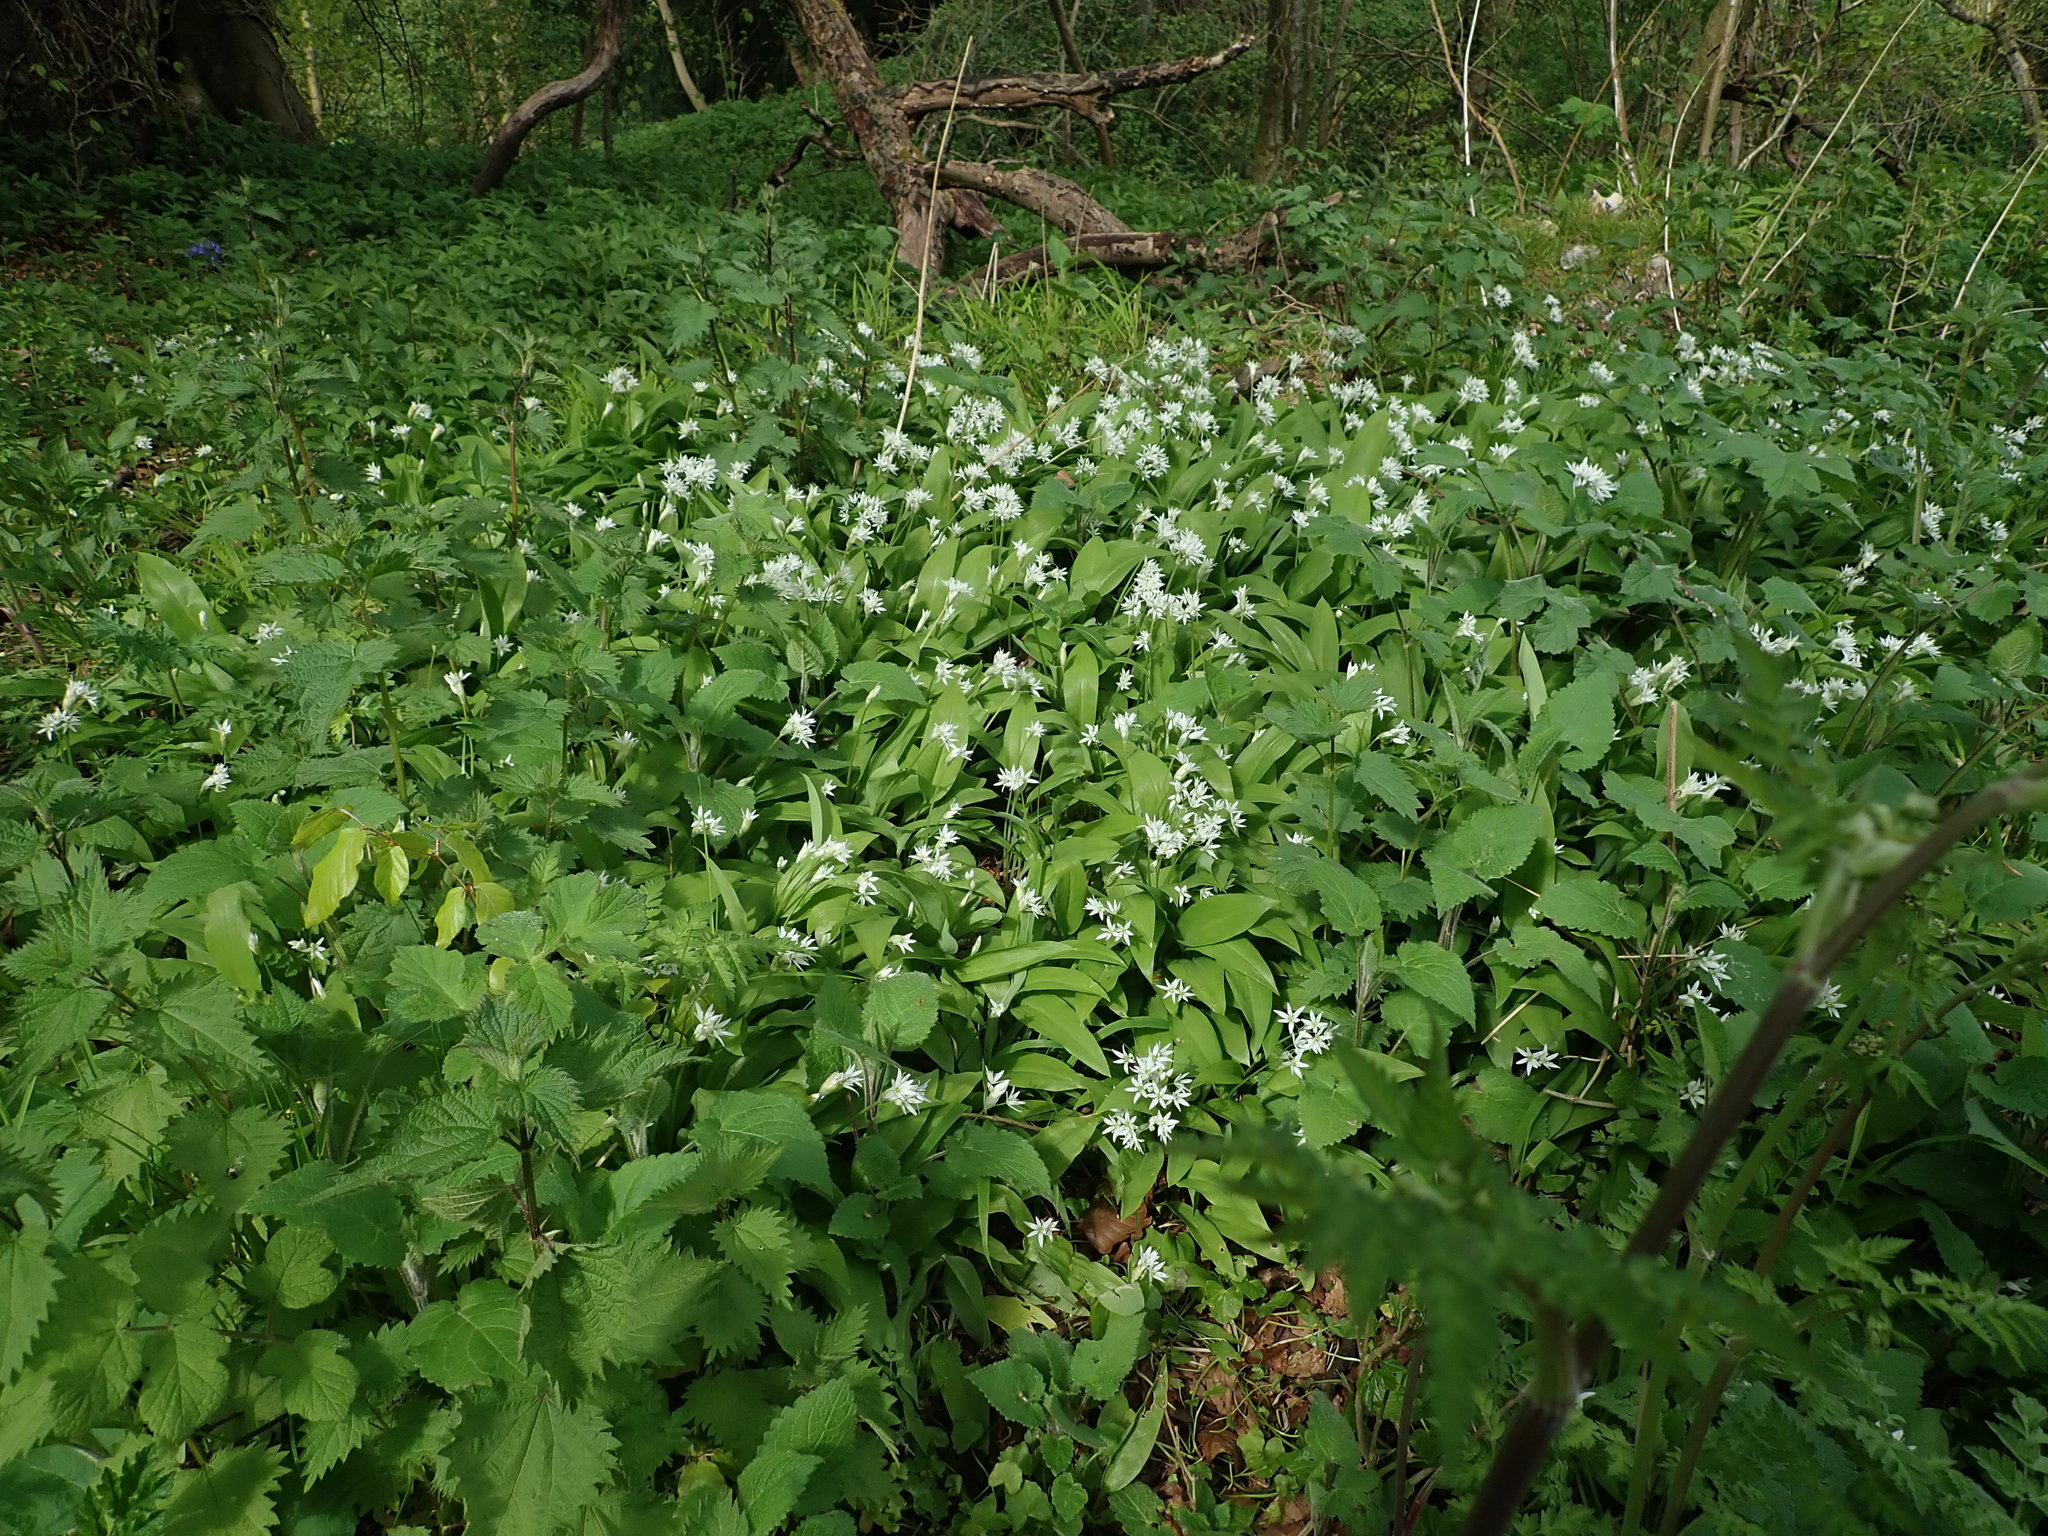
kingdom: Plantae
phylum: Tracheophyta
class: Liliopsida
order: Asparagales
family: Amaryllidaceae
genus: Allium
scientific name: Allium ursinum
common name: Ramsons
